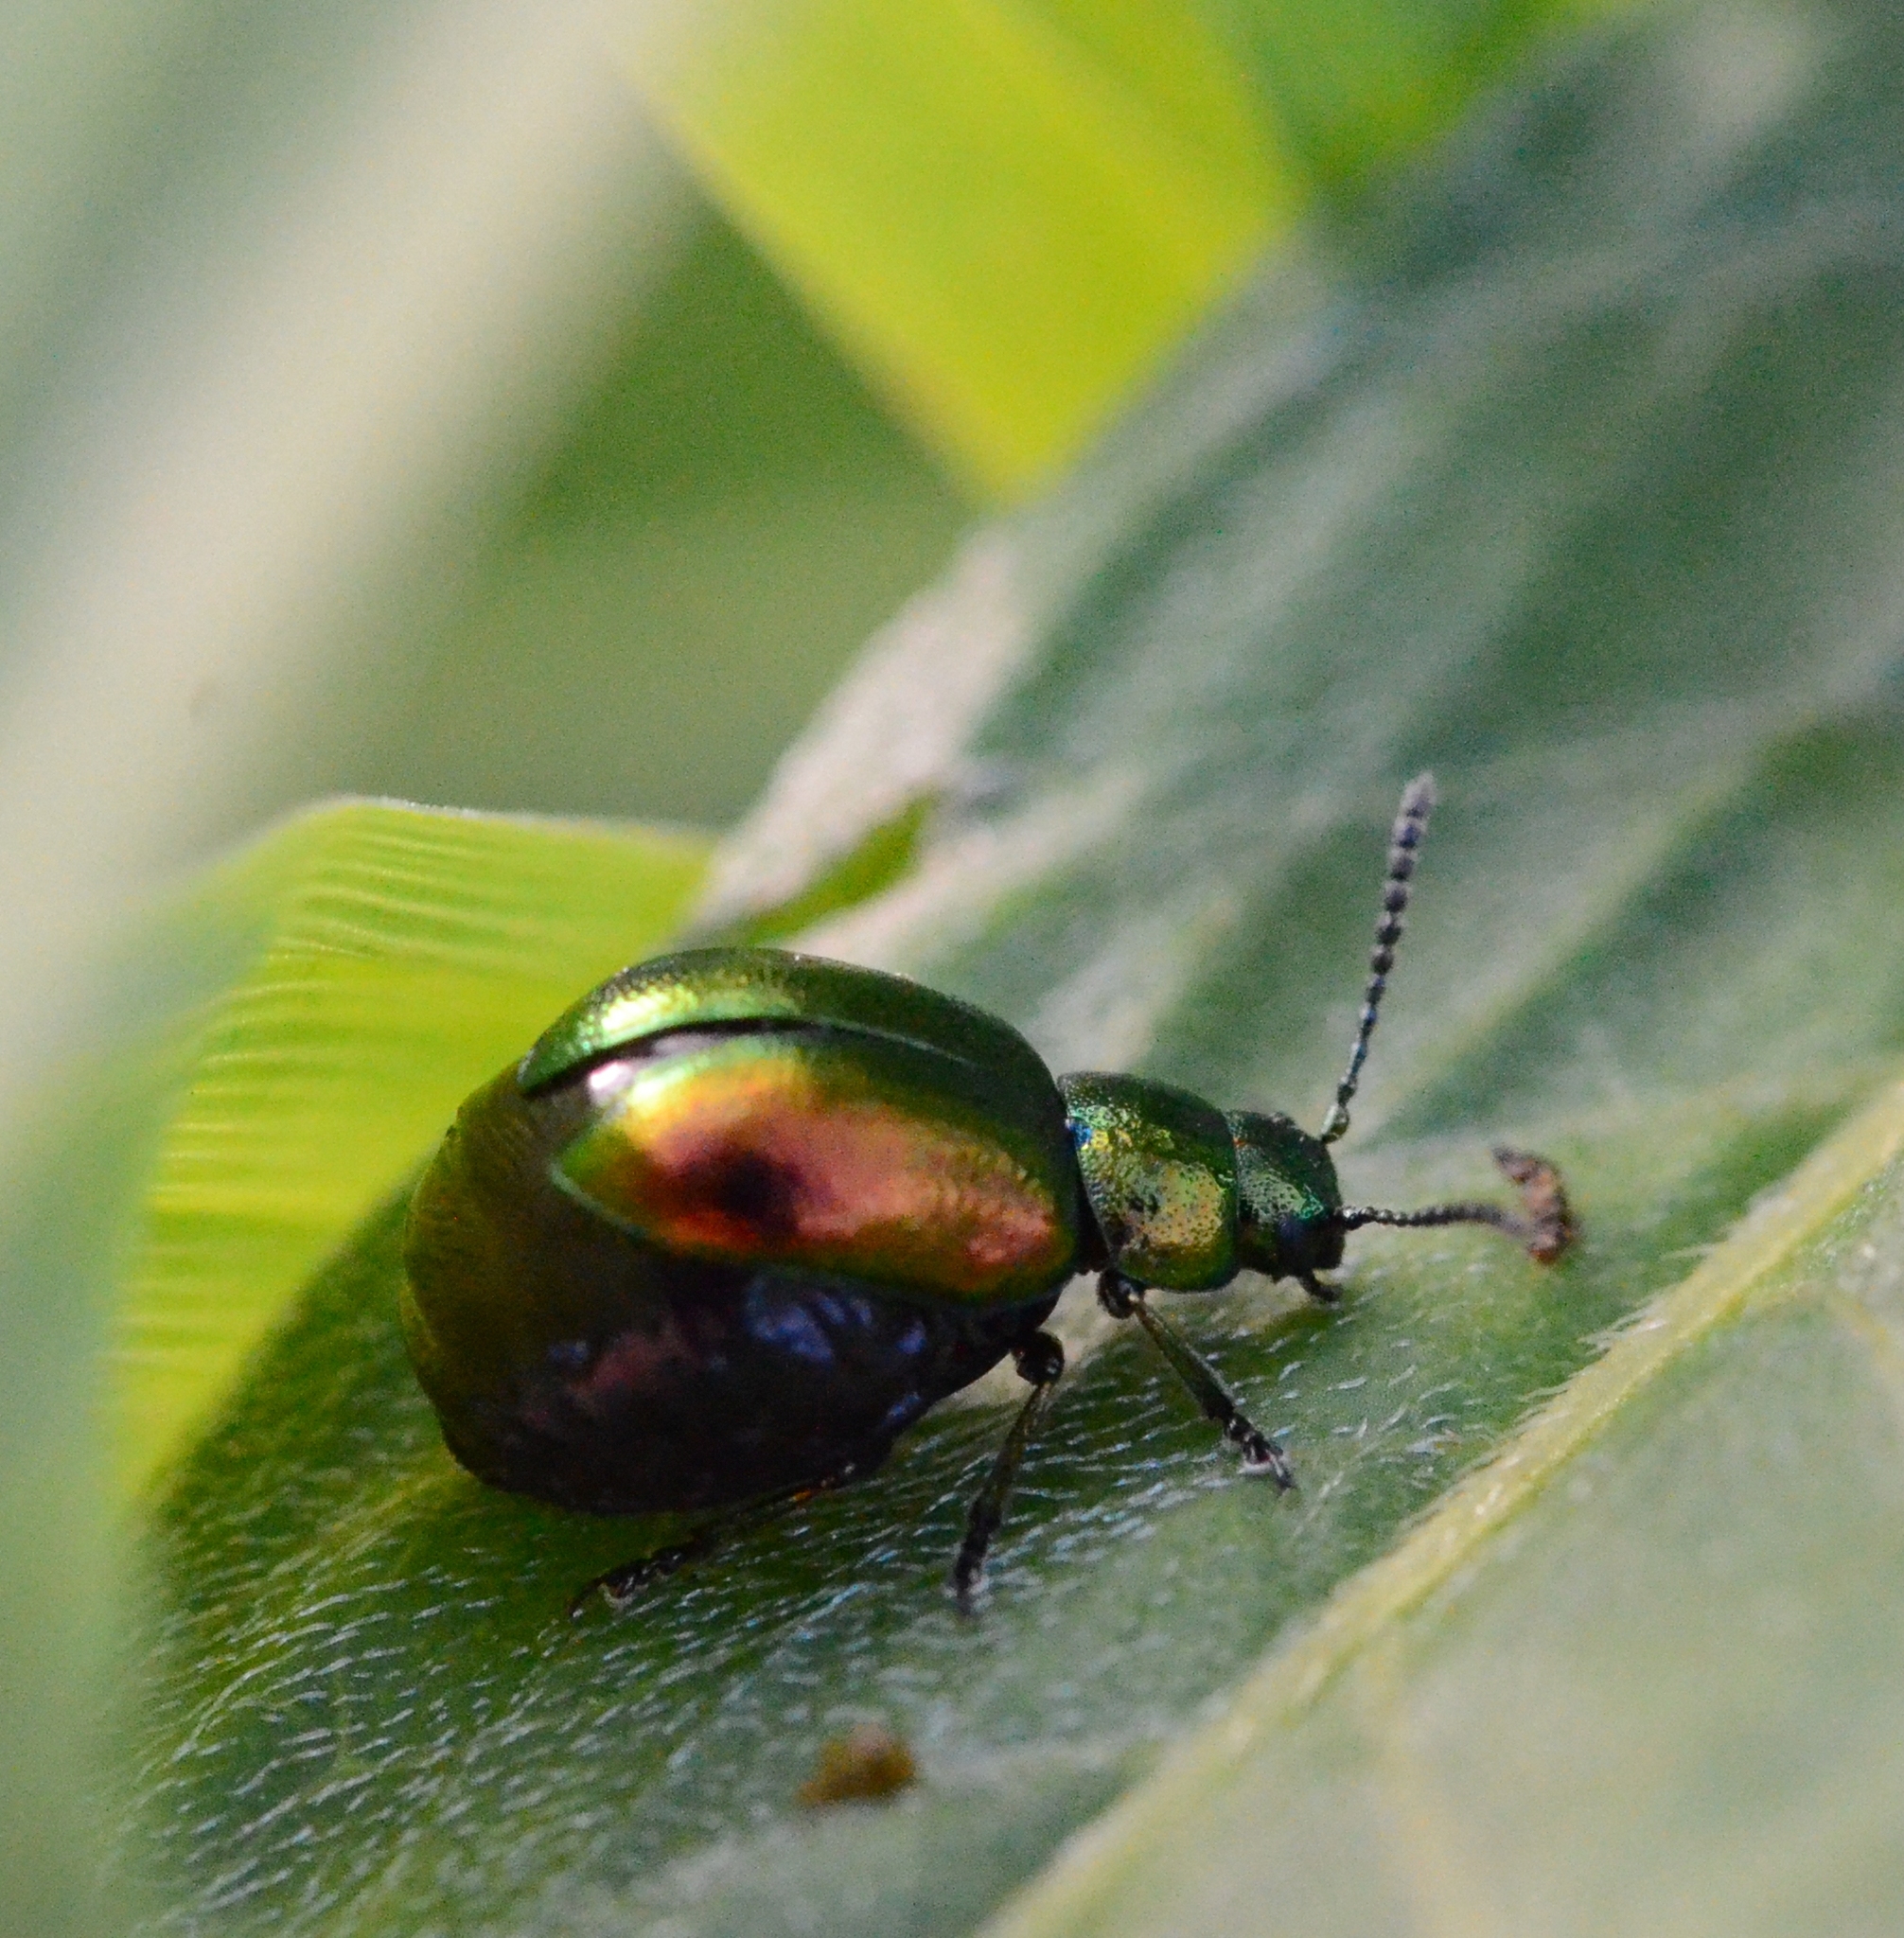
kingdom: Animalia
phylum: Arthropoda
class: Insecta
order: Coleoptera
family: Chrysomelidae
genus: Gastrophysa
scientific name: Gastrophysa viridula
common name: Green dock beetle
